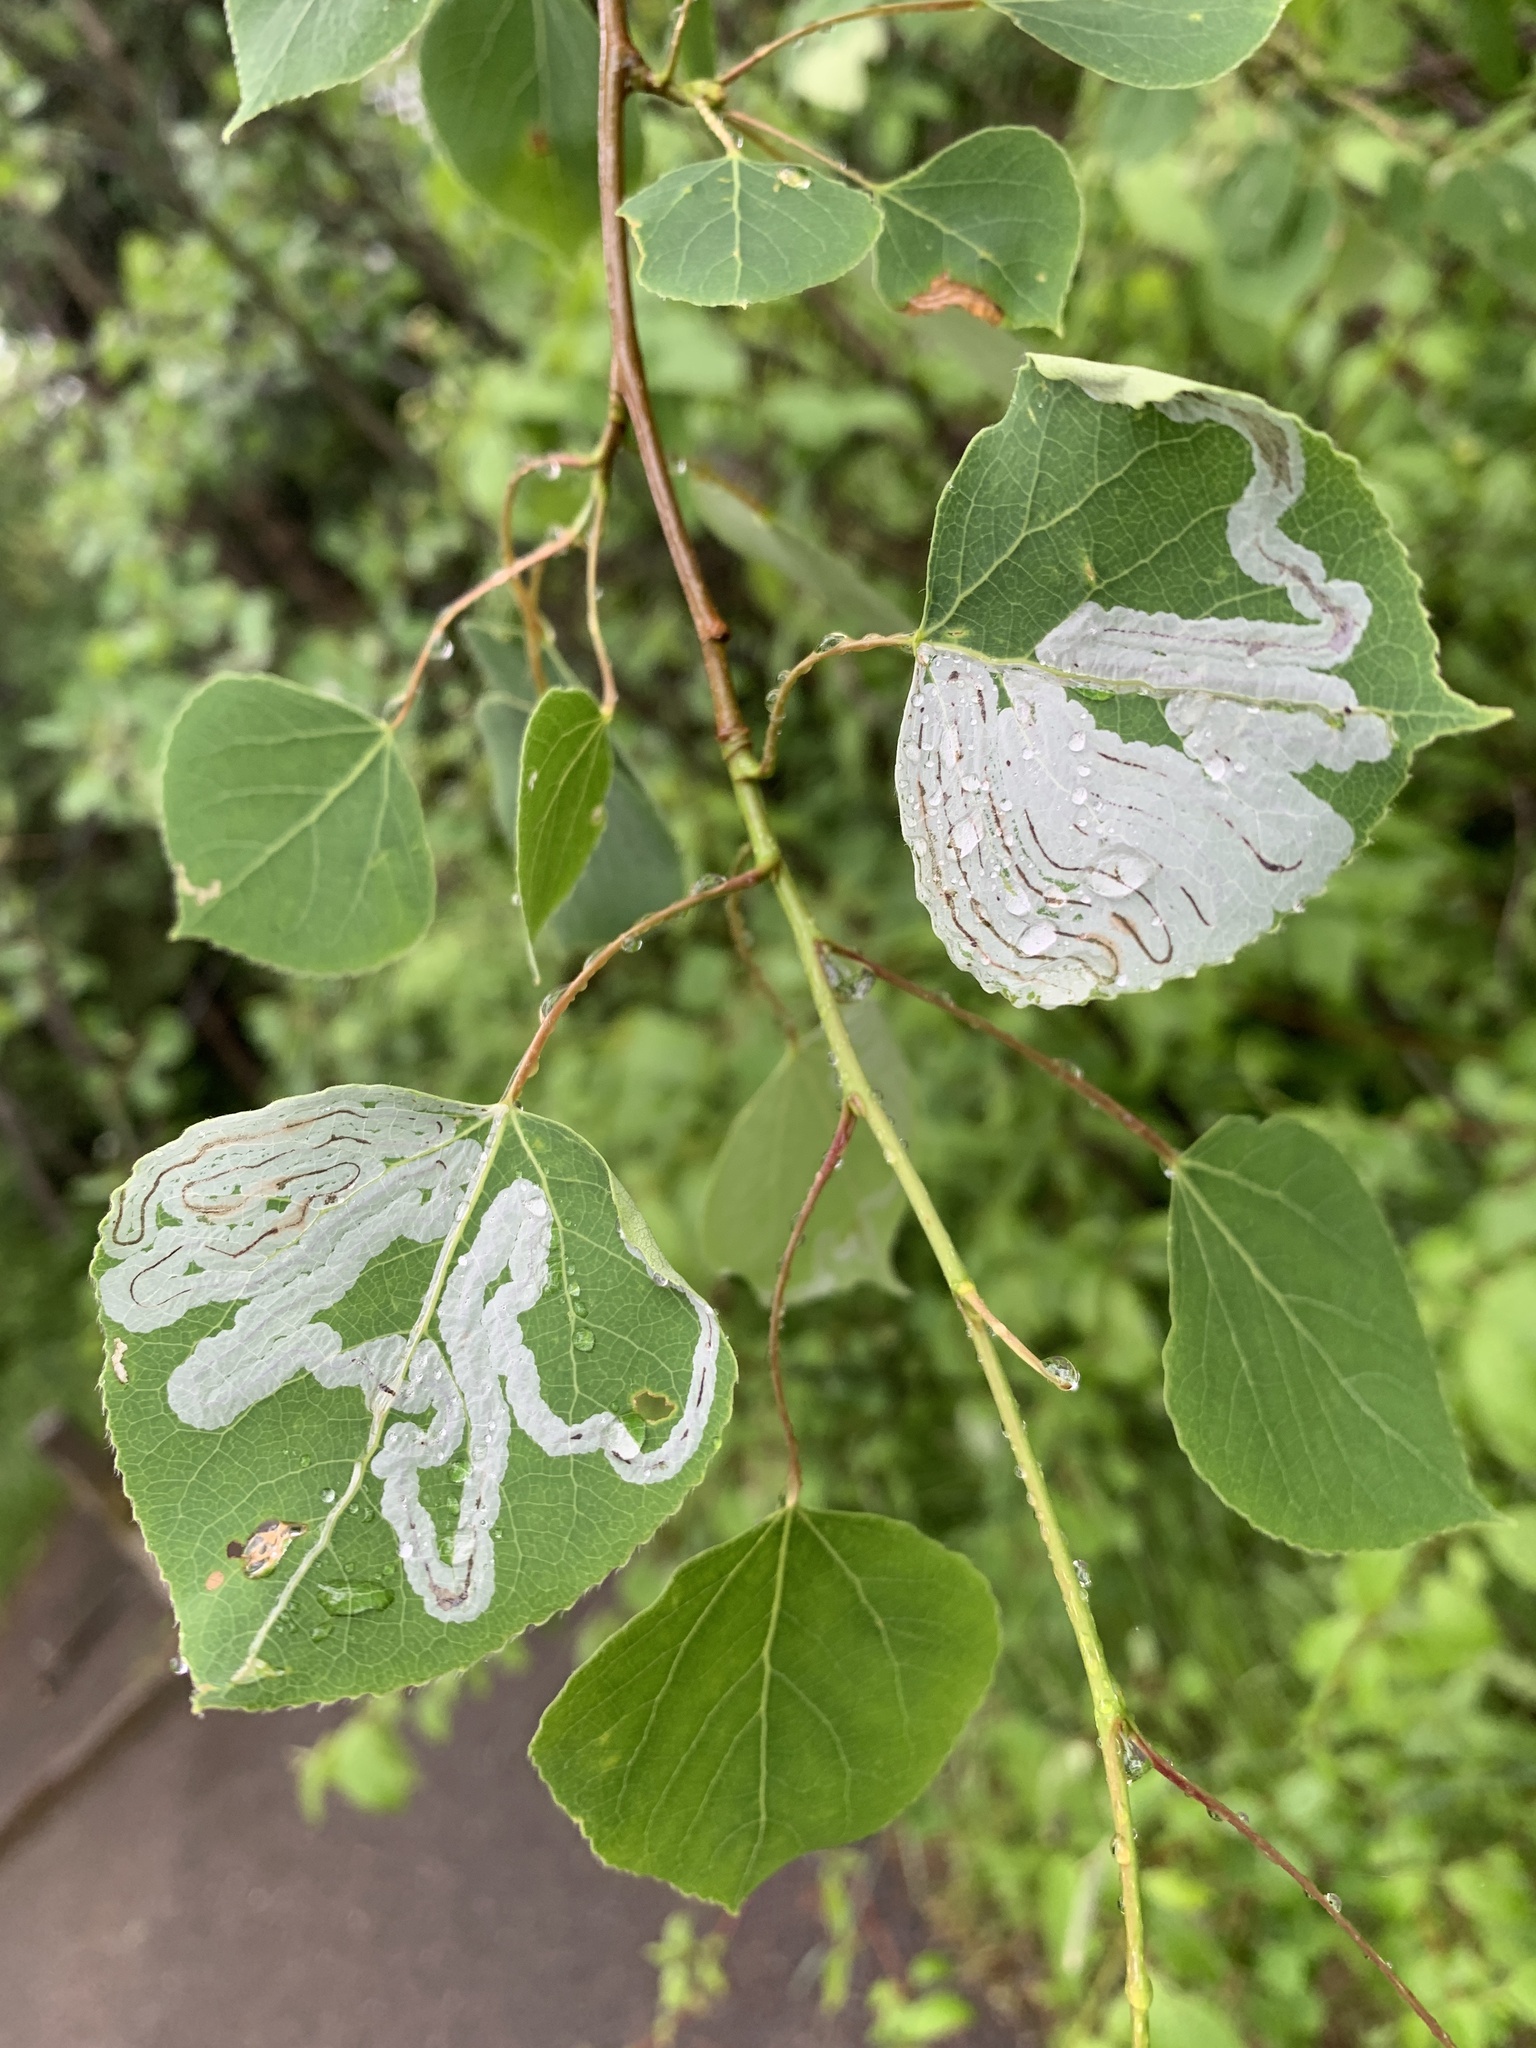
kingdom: Animalia
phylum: Arthropoda
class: Insecta
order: Lepidoptera
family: Gracillariidae
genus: Phyllocnistis
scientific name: Phyllocnistis populiella
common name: Aspen serpentine leafminer moth
